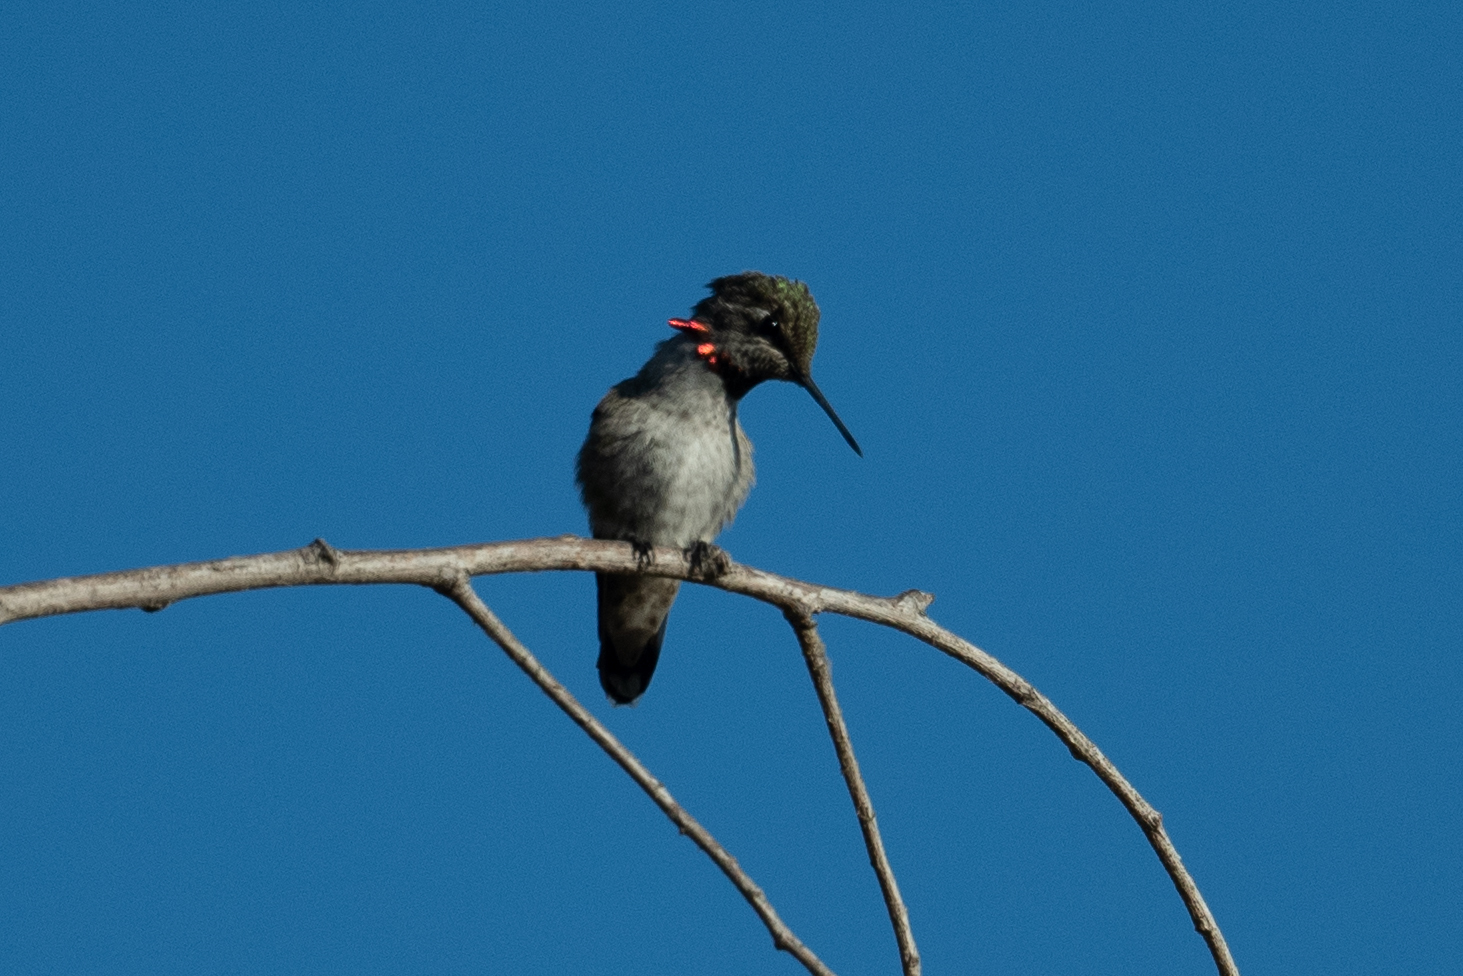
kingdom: Animalia
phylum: Chordata
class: Aves
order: Apodiformes
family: Trochilidae
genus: Calypte
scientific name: Calypte anna
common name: Anna's hummingbird
